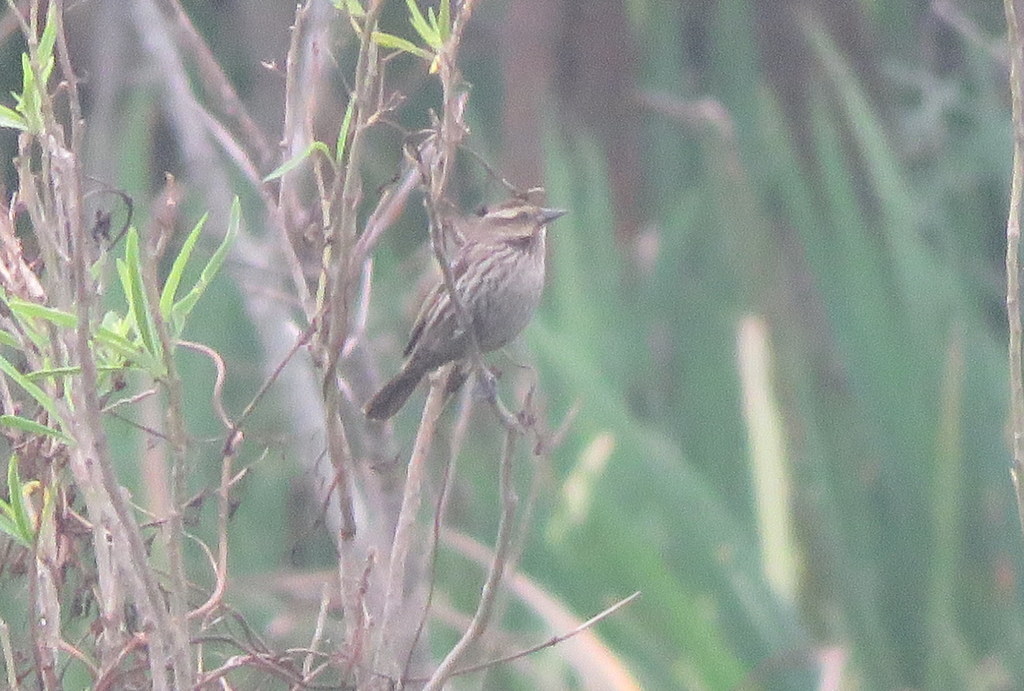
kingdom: Animalia
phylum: Chordata
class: Aves
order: Passeriformes
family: Icteridae
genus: Agelasticus
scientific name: Agelasticus thilius
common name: Yellow-winged blackbird
